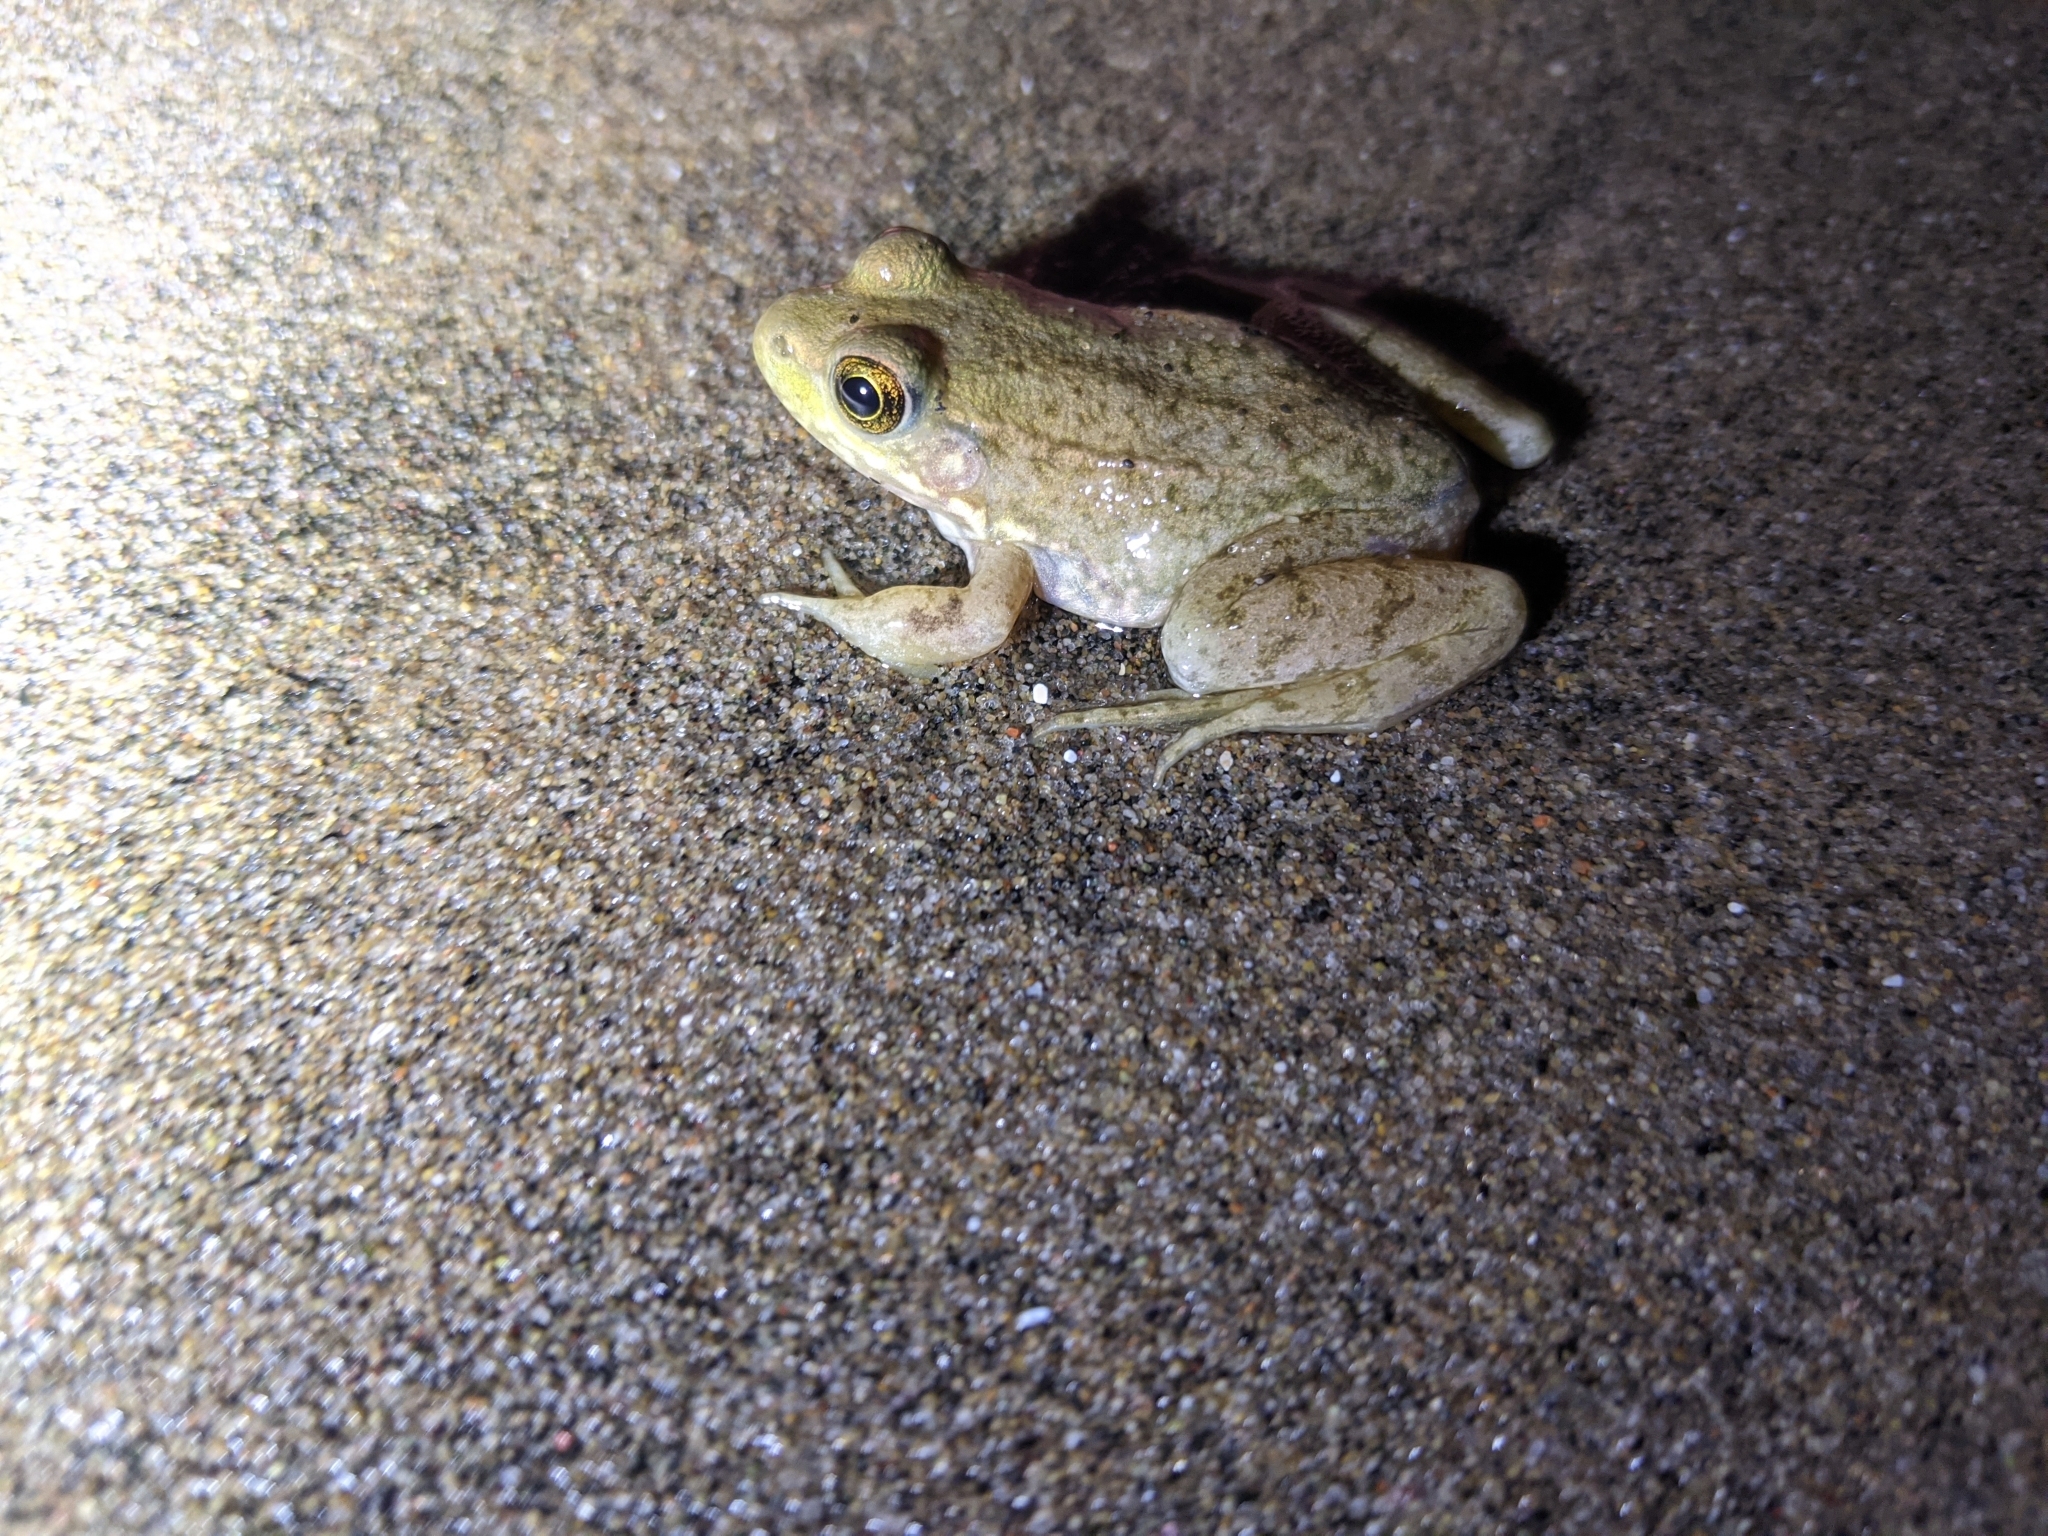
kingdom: Animalia
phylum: Chordata
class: Amphibia
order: Anura
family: Ranidae
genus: Lithobates
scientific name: Lithobates clamitans
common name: Green frog
